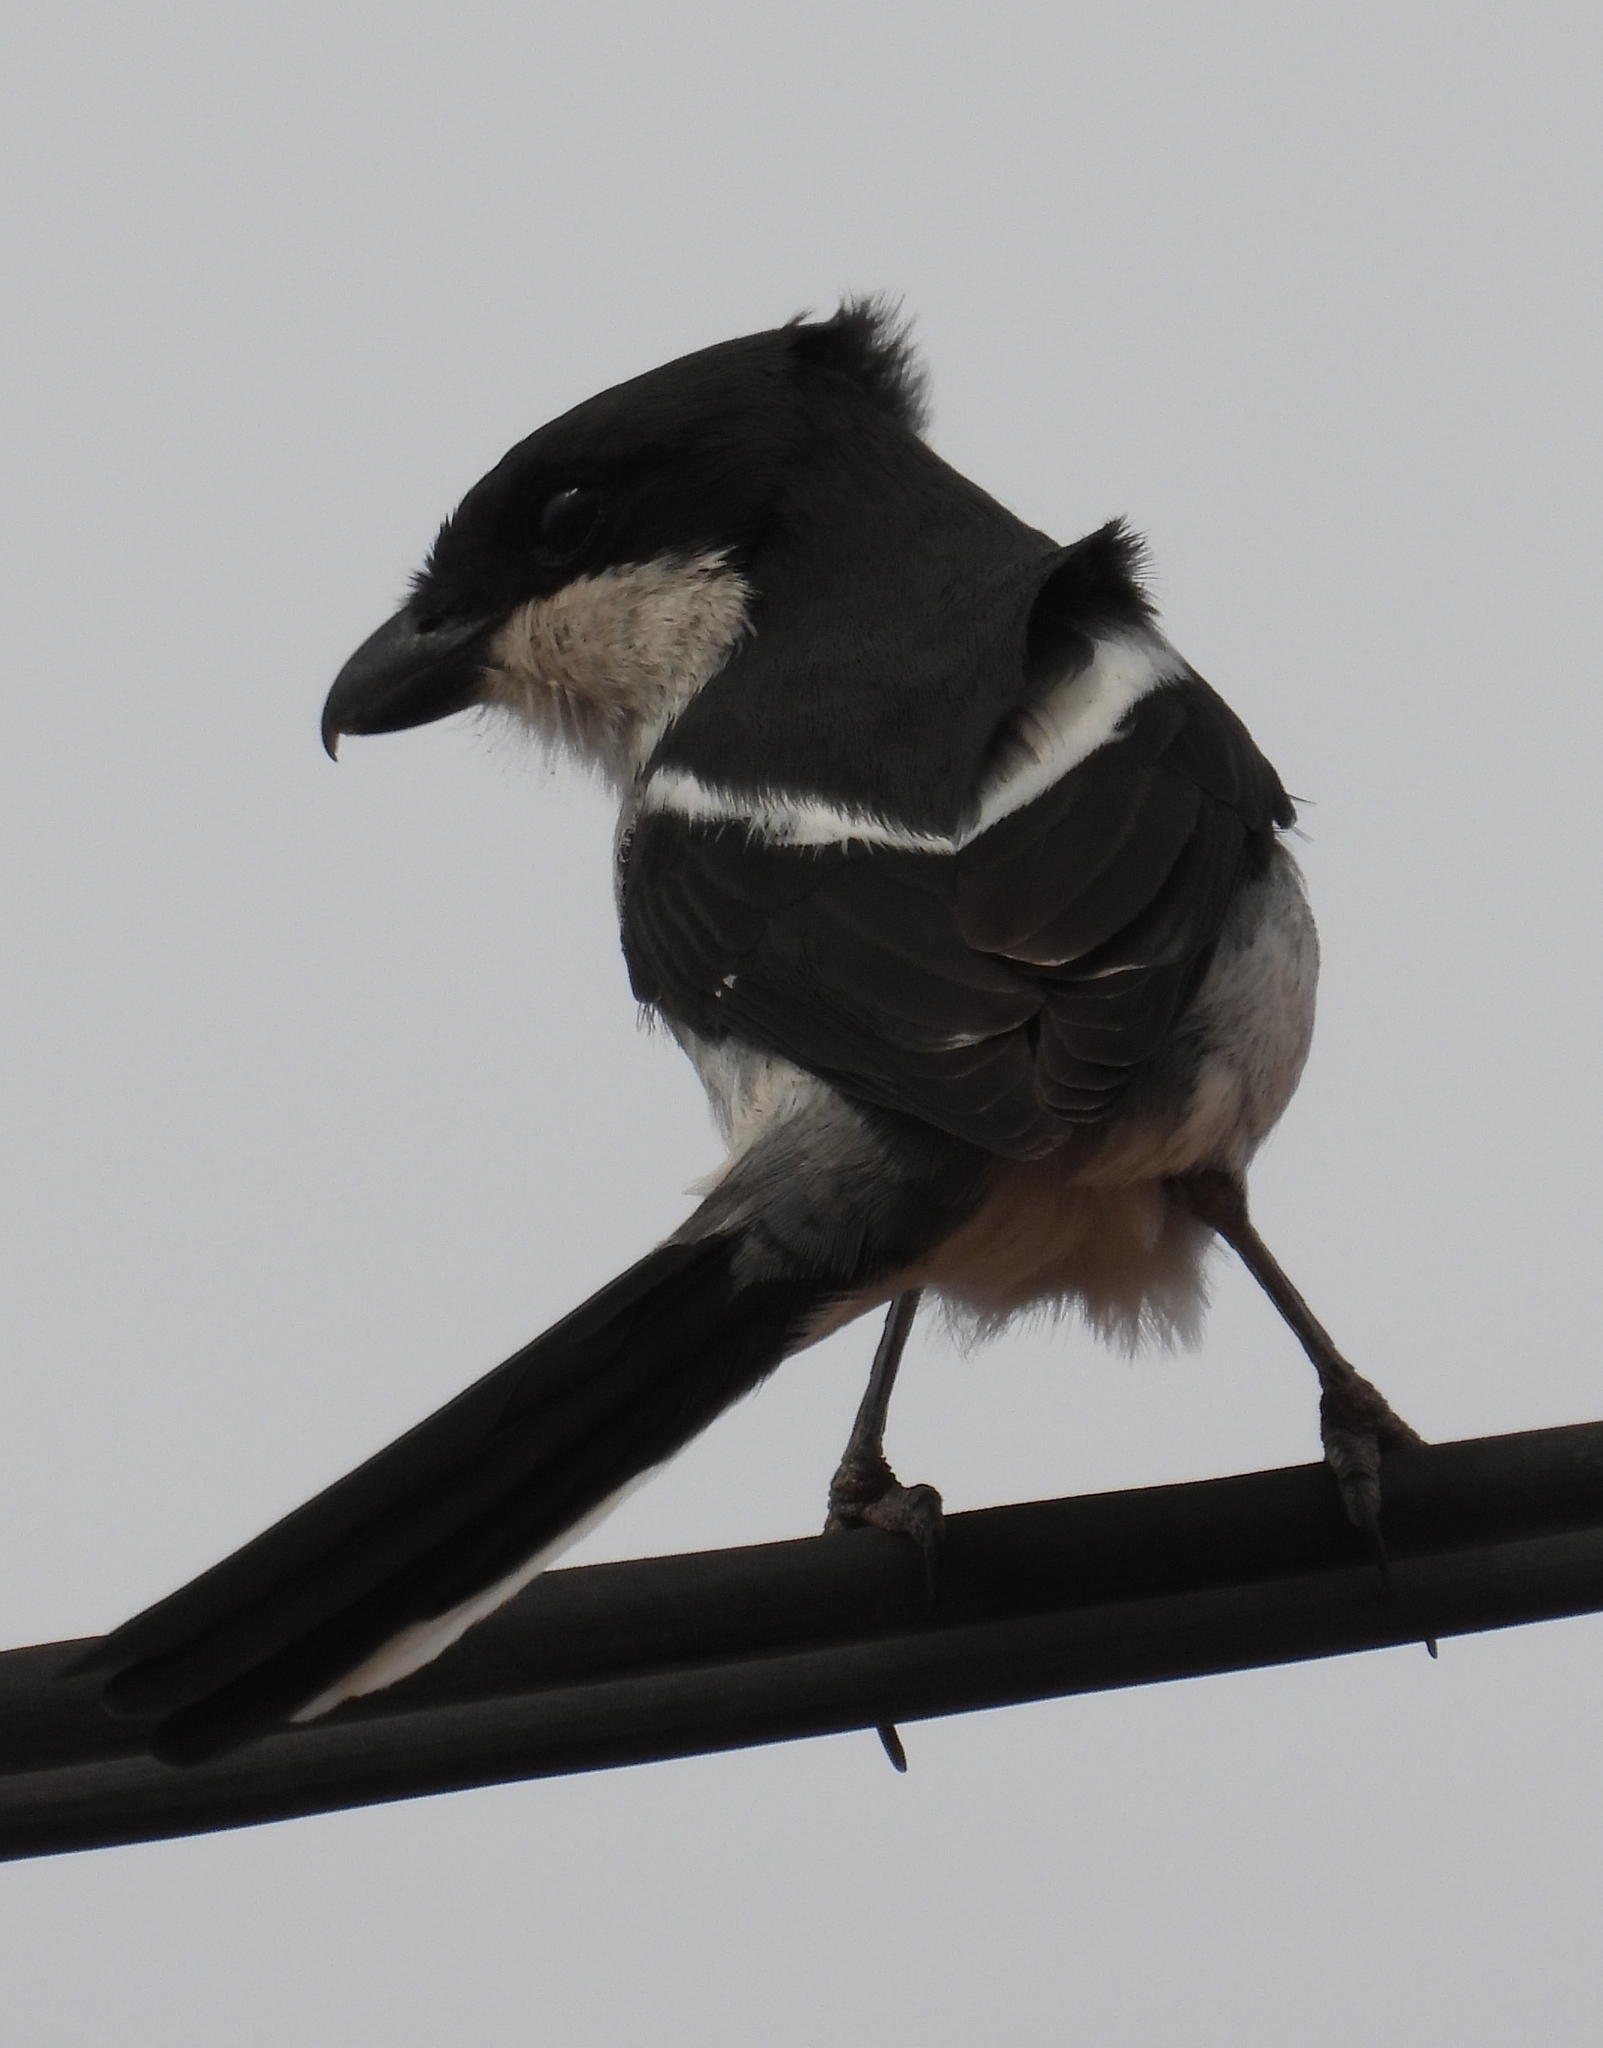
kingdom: Animalia
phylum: Chordata
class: Aves
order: Passeriformes
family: Laniidae
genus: Lanius
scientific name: Lanius collaris
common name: Southern fiscal
